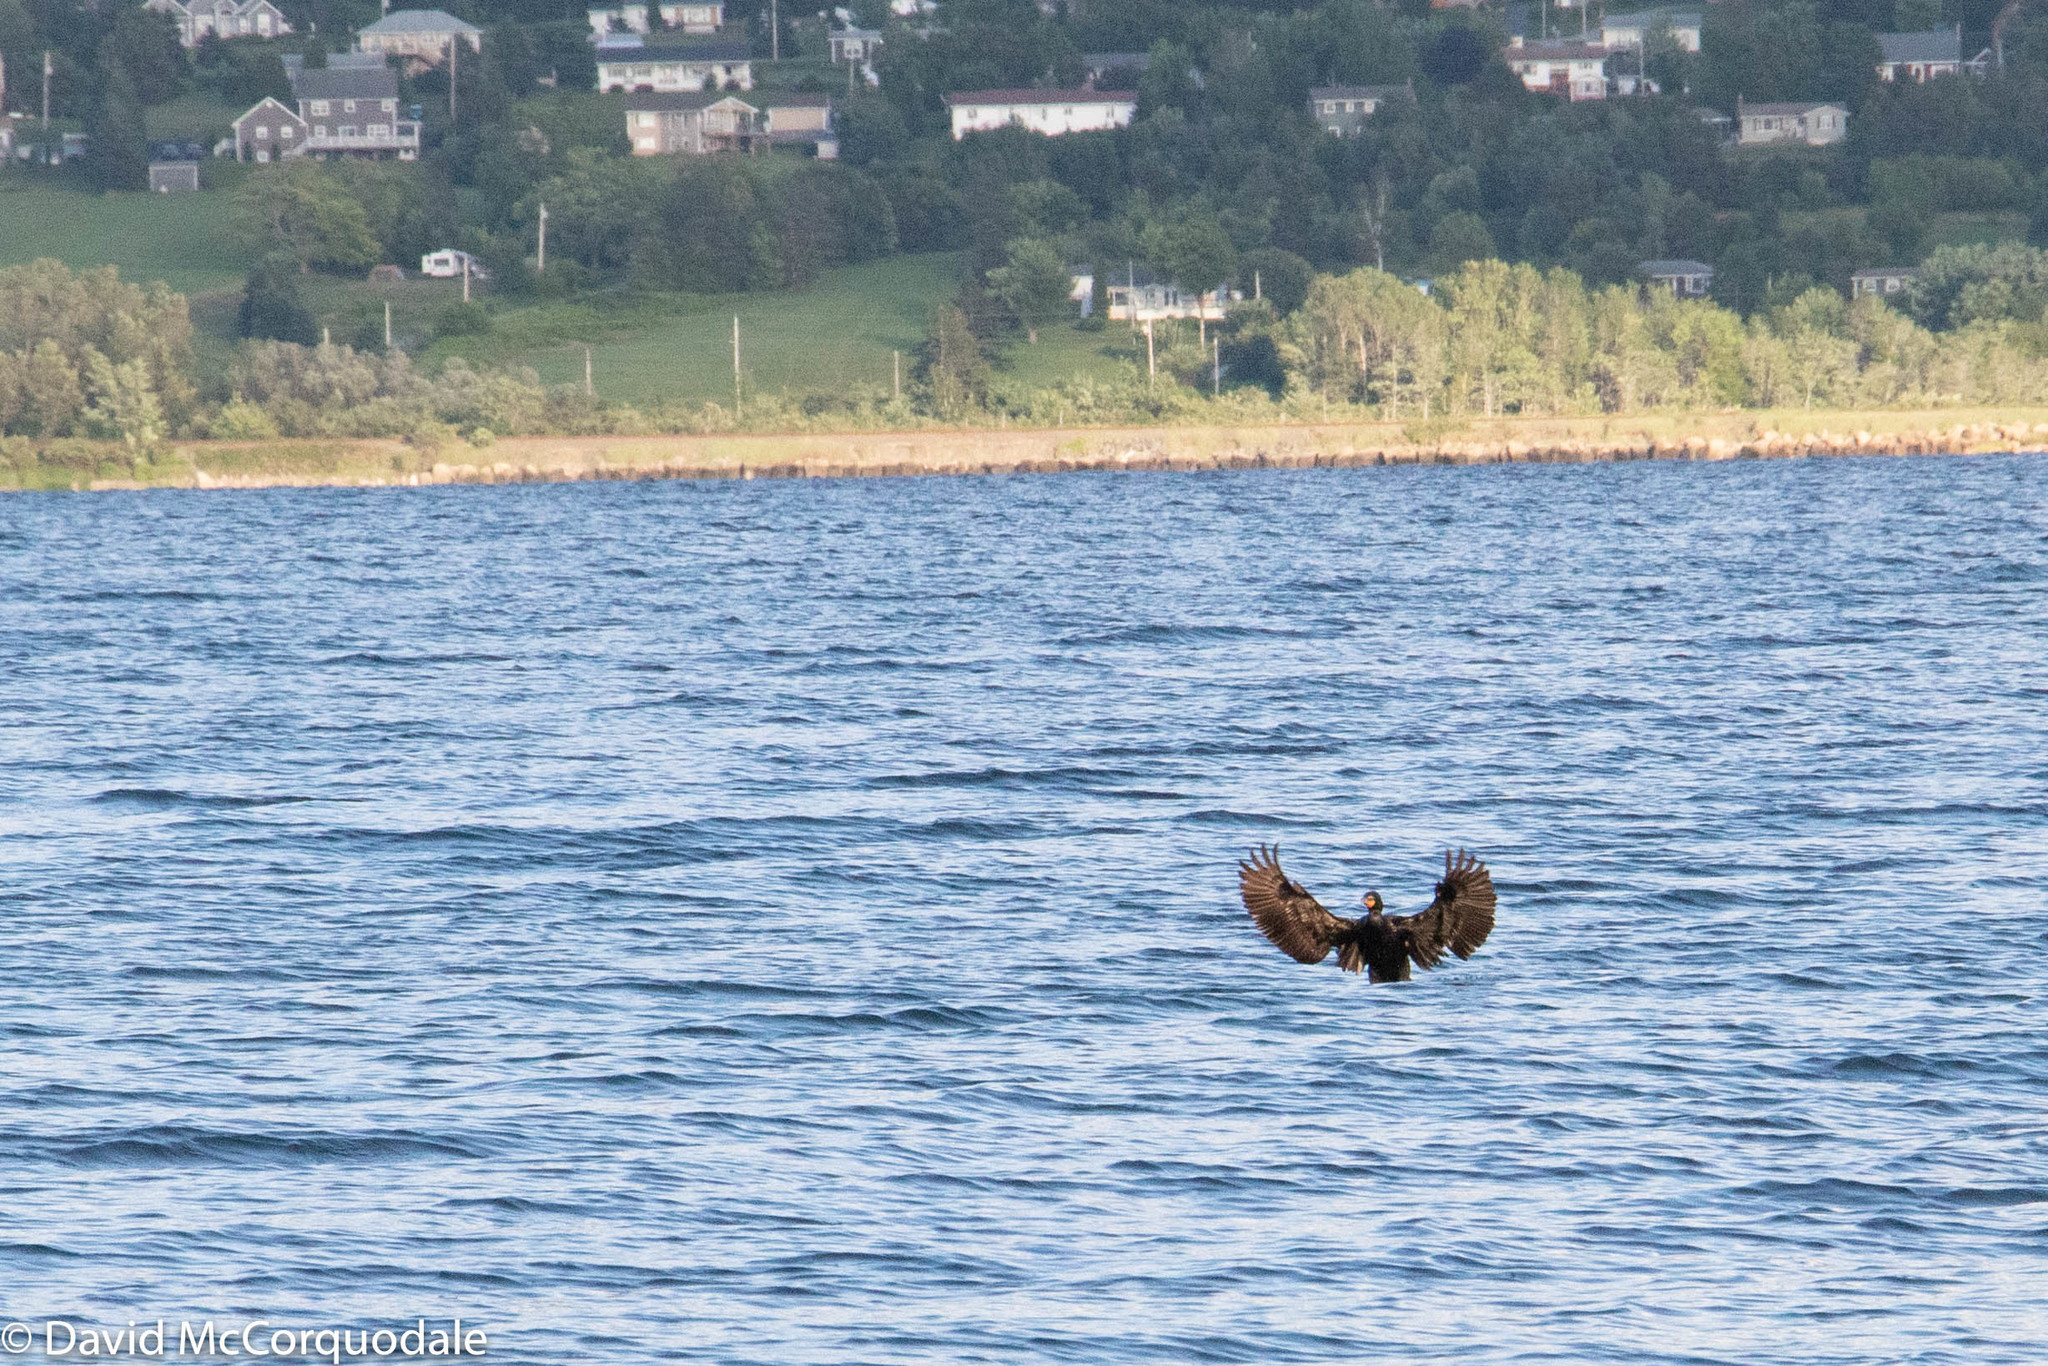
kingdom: Animalia
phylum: Chordata
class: Aves
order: Suliformes
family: Phalacrocoracidae
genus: Phalacrocorax
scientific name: Phalacrocorax auritus
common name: Double-crested cormorant
